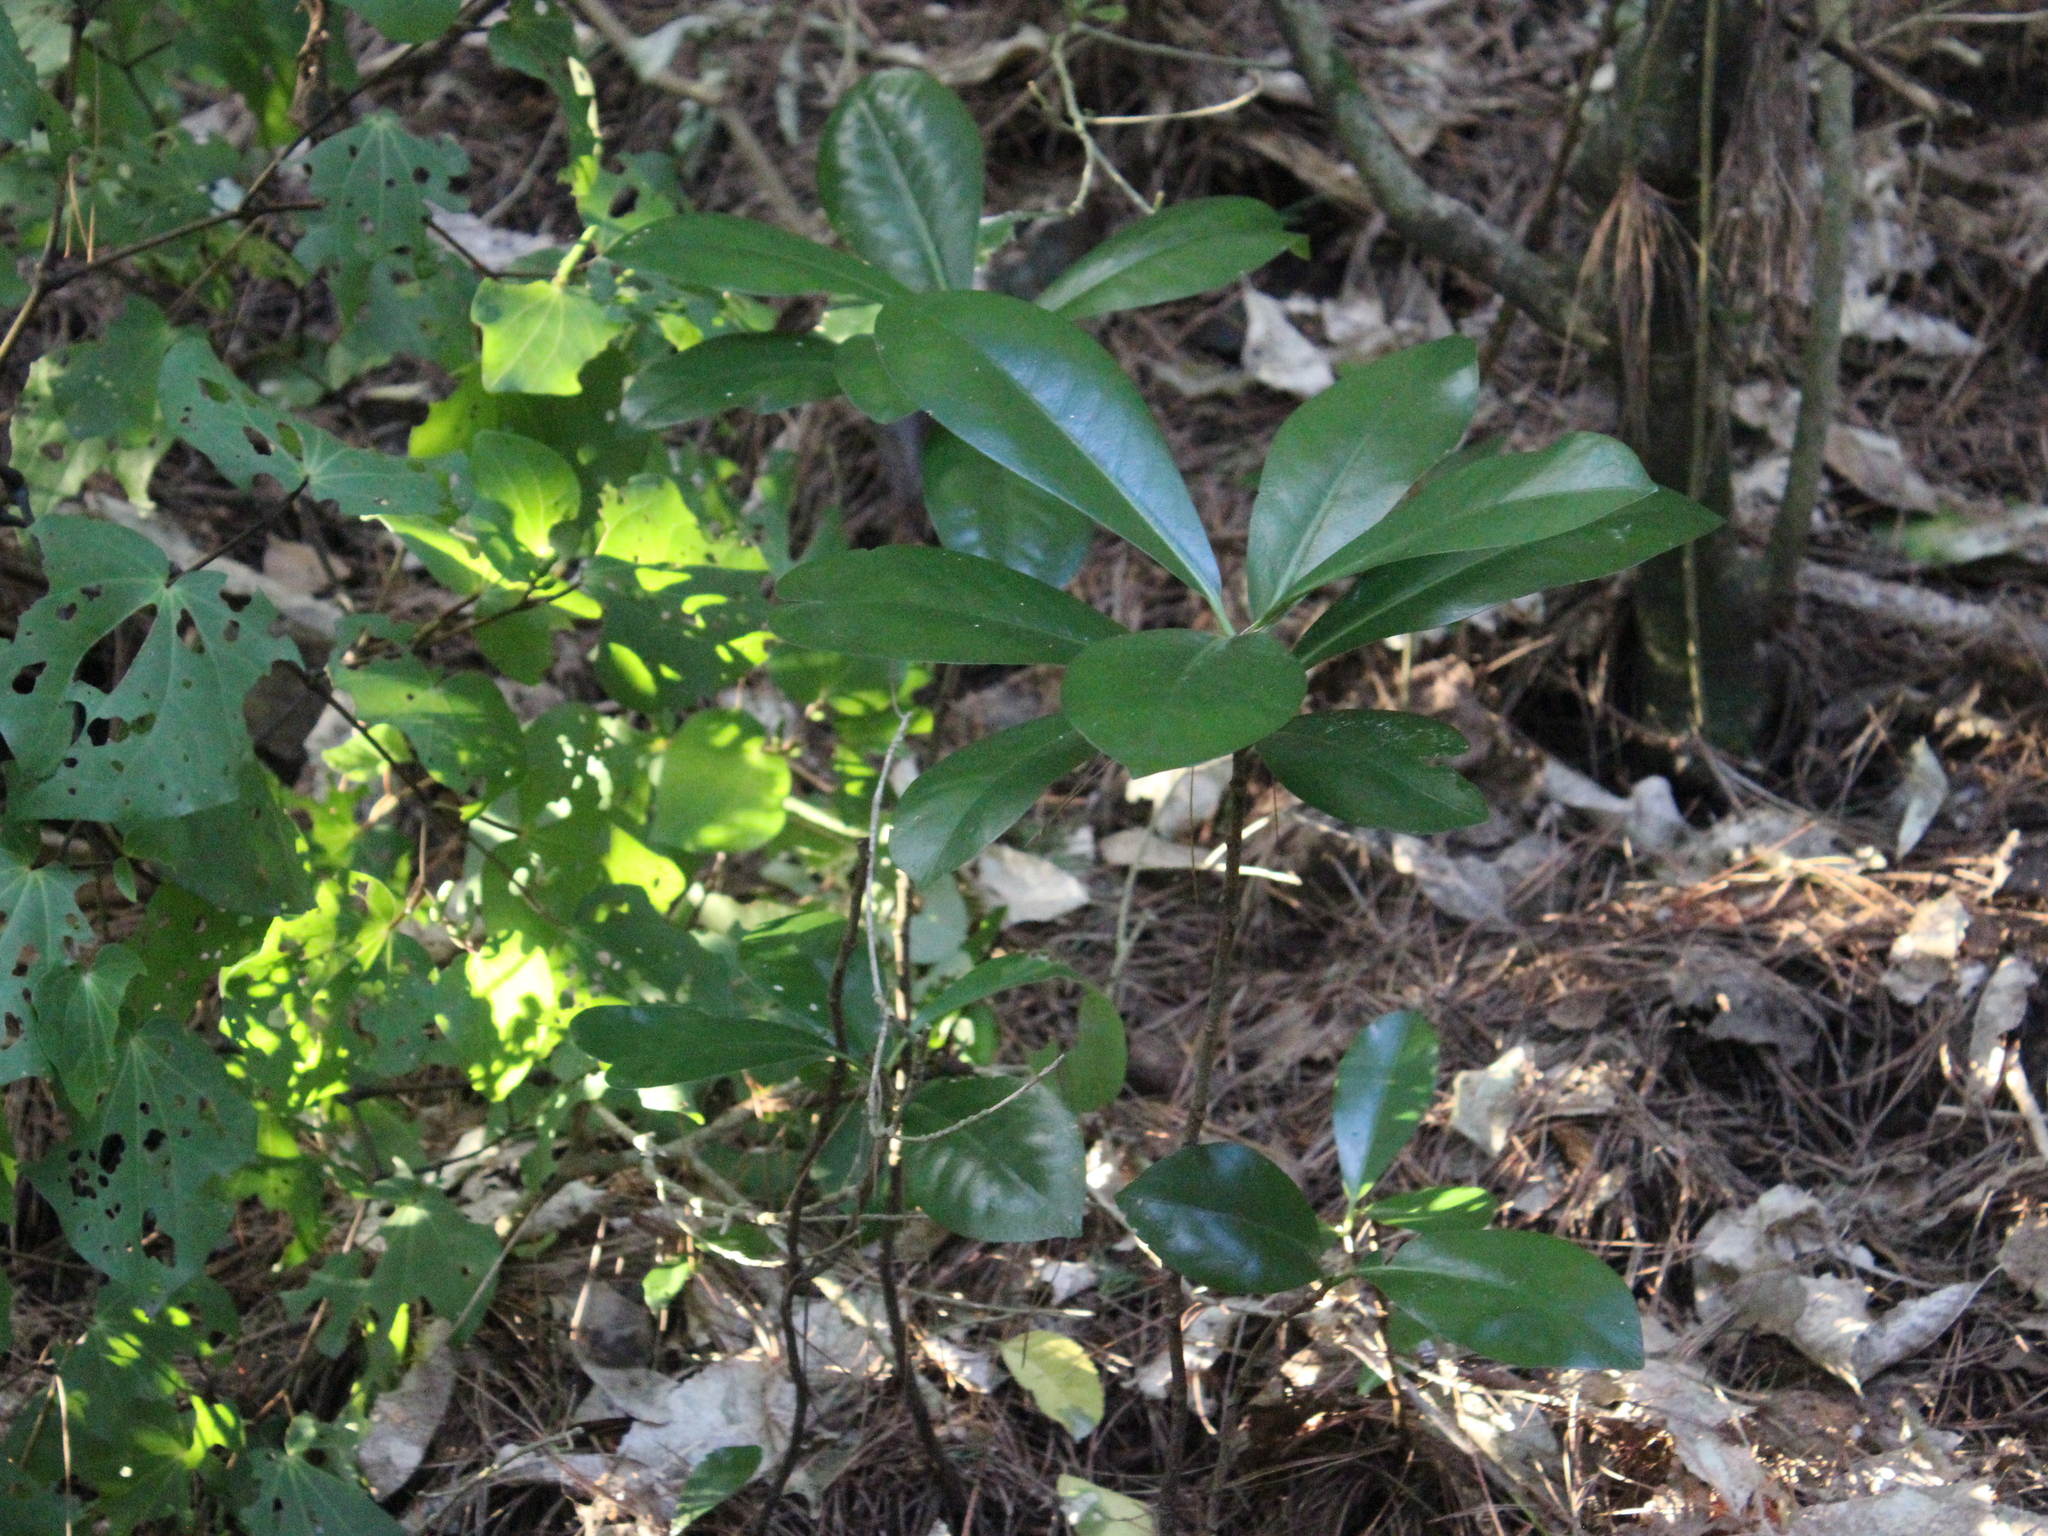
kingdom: Plantae
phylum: Tracheophyta
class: Magnoliopsida
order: Cucurbitales
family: Corynocarpaceae
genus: Corynocarpus
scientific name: Corynocarpus laevigatus
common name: New zealand laurel
